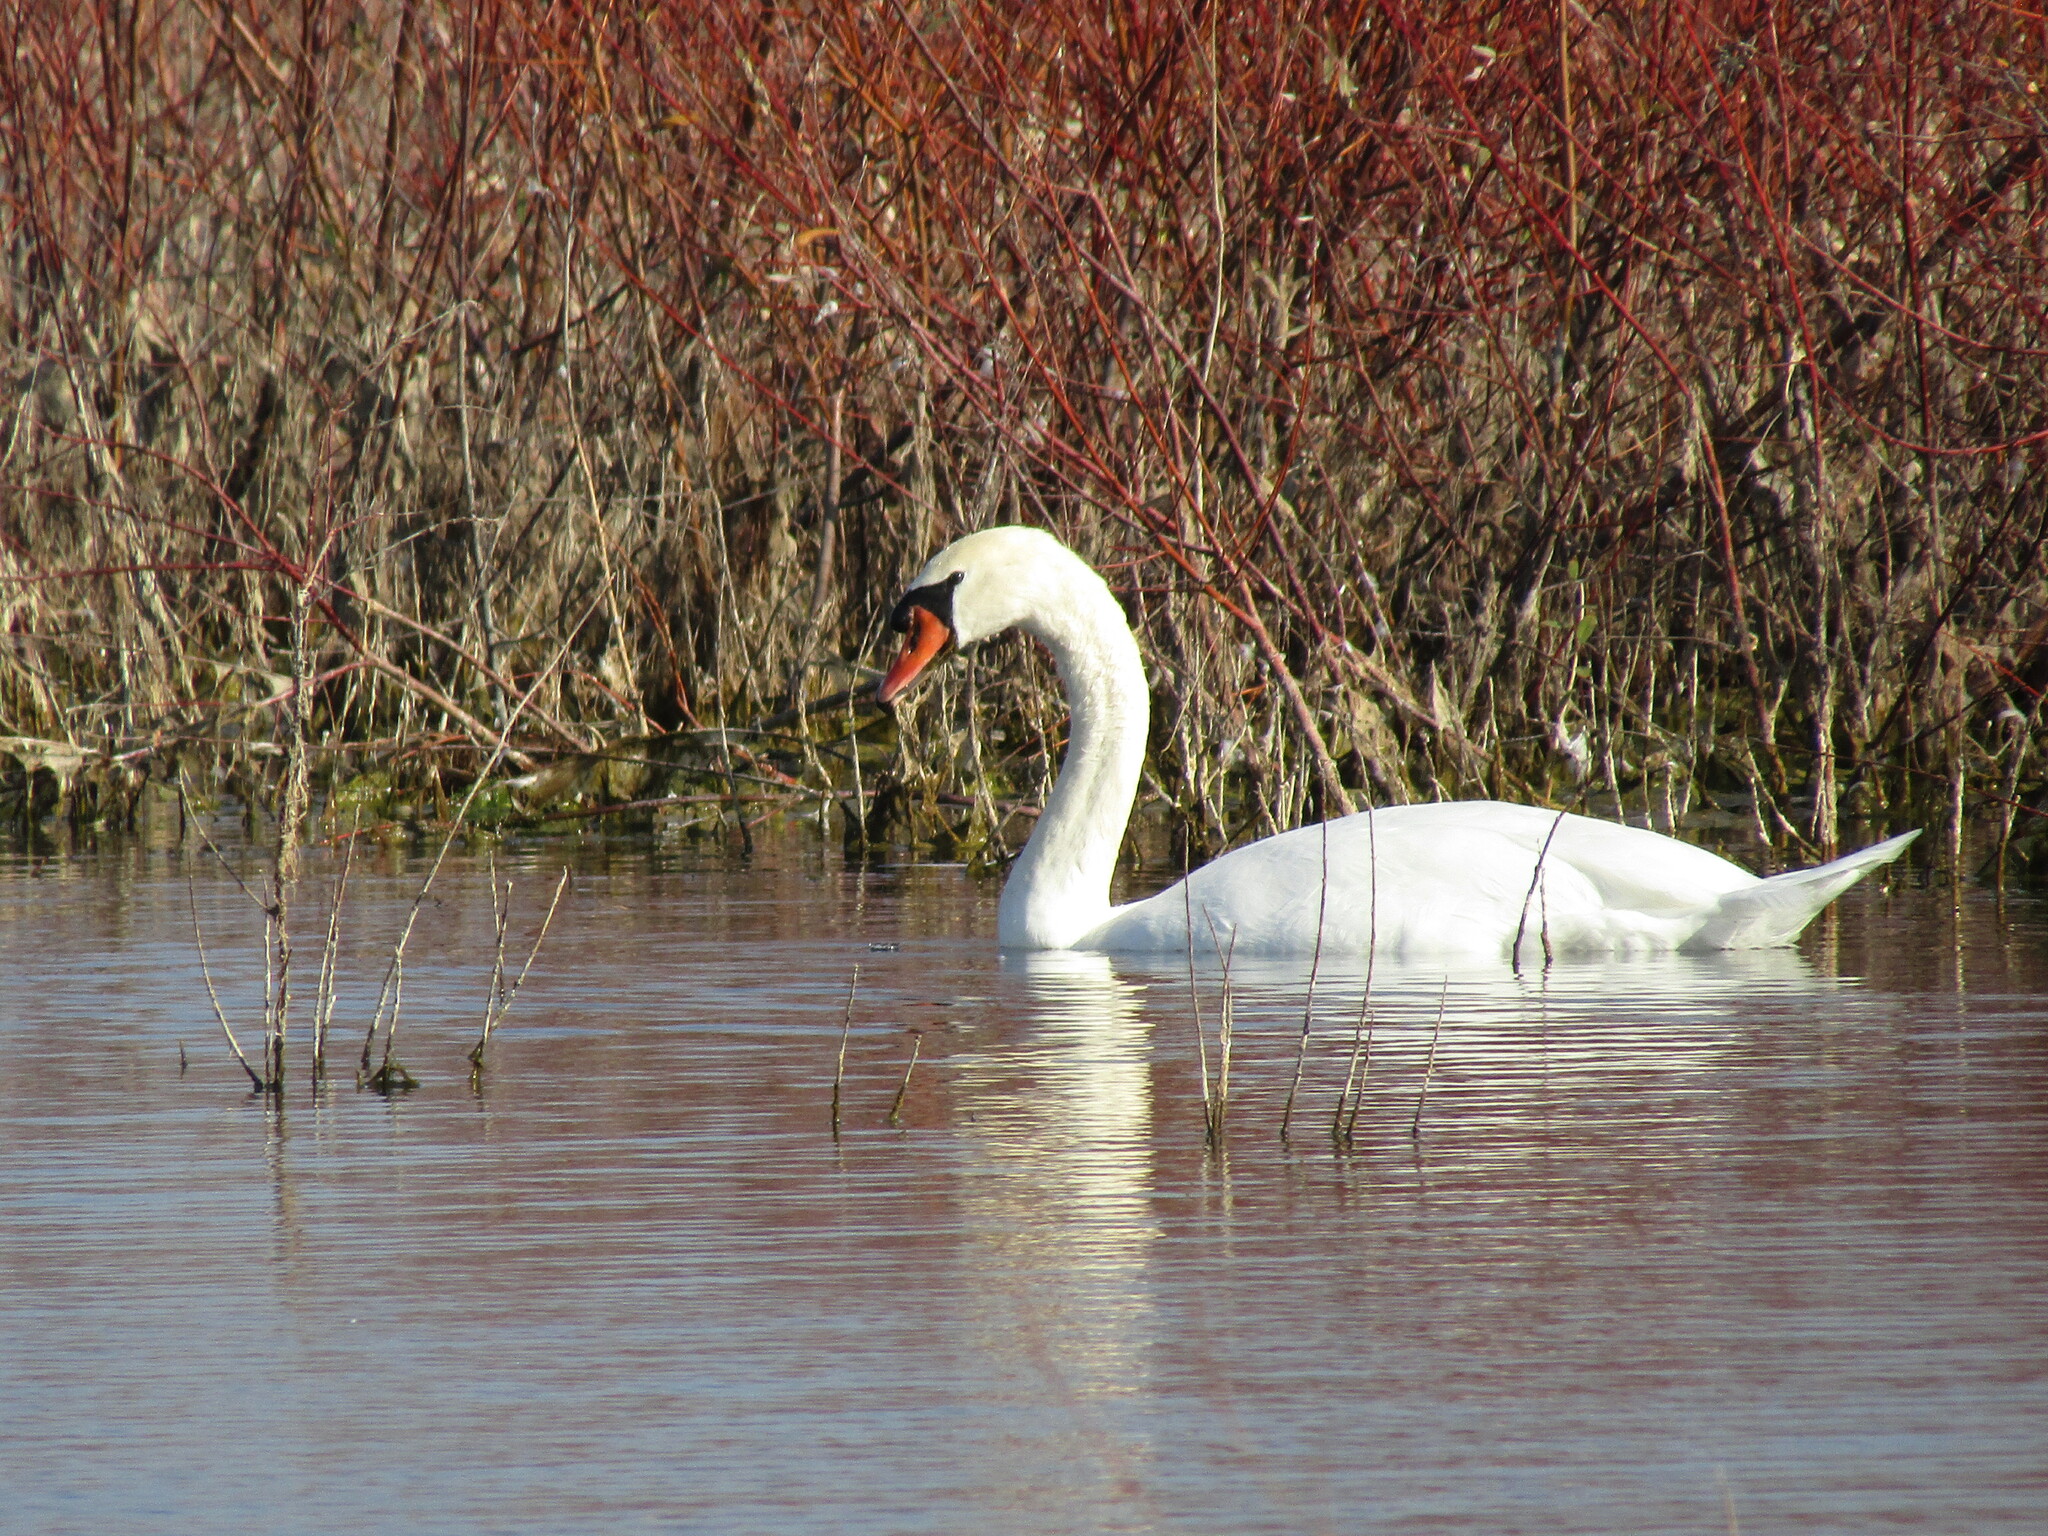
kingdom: Animalia
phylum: Chordata
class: Aves
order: Anseriformes
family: Anatidae
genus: Cygnus
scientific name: Cygnus olor
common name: Mute swan
